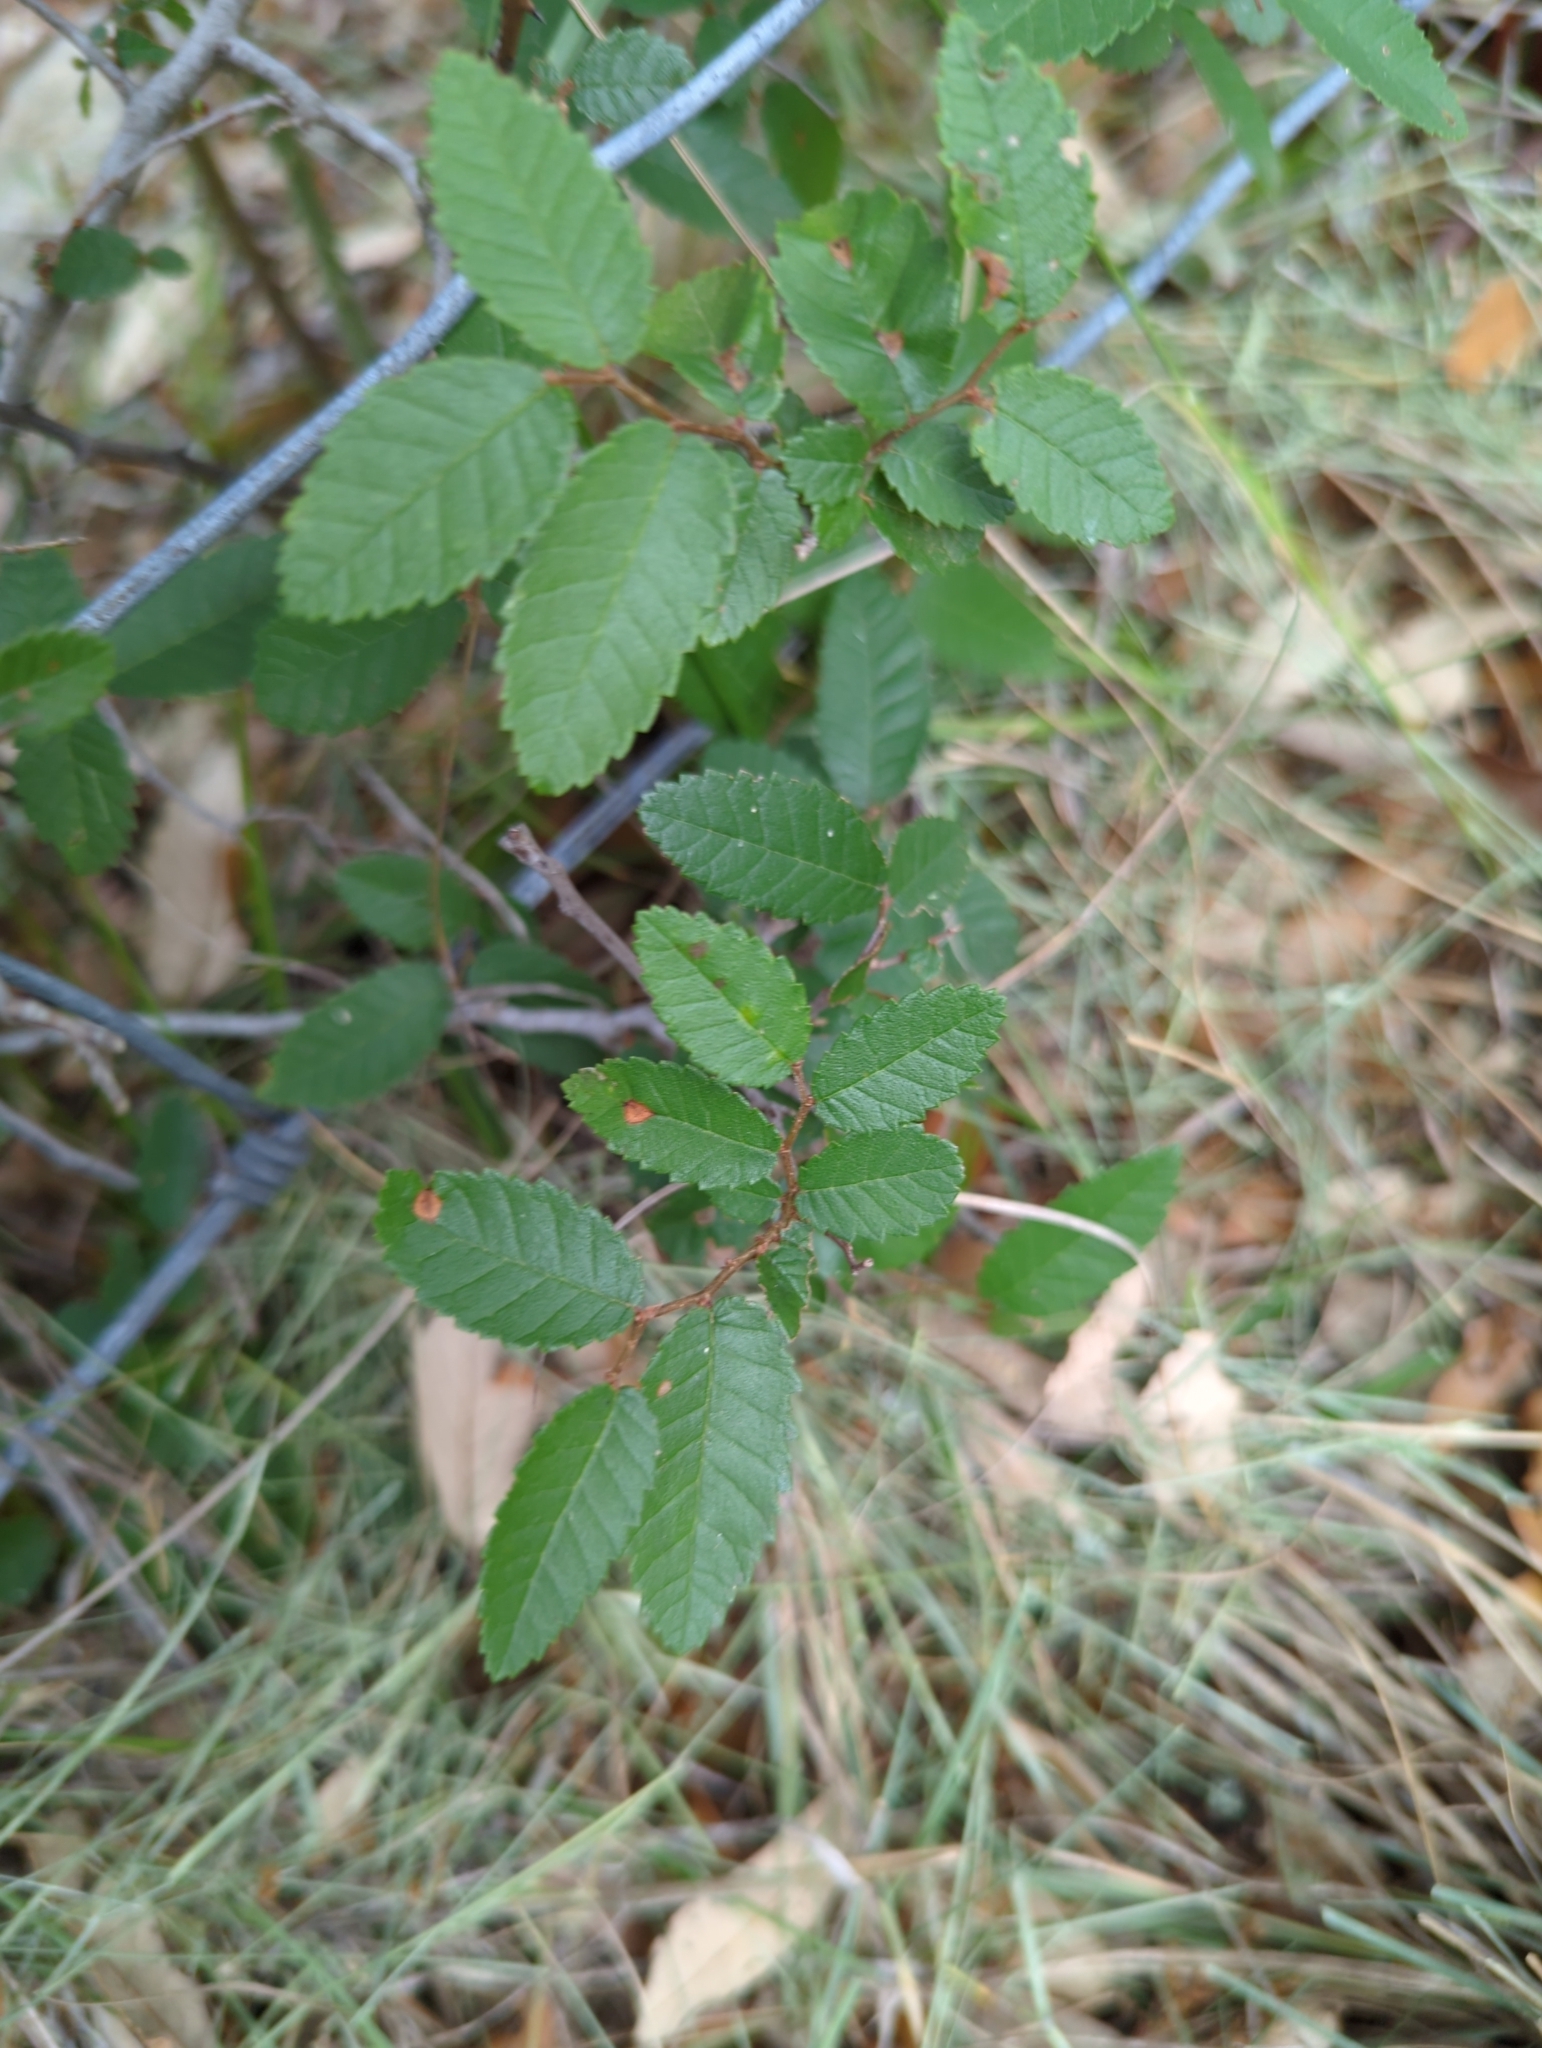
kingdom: Plantae
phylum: Tracheophyta
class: Magnoliopsida
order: Rosales
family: Ulmaceae
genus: Ulmus
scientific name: Ulmus crassifolia
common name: Basket elm
